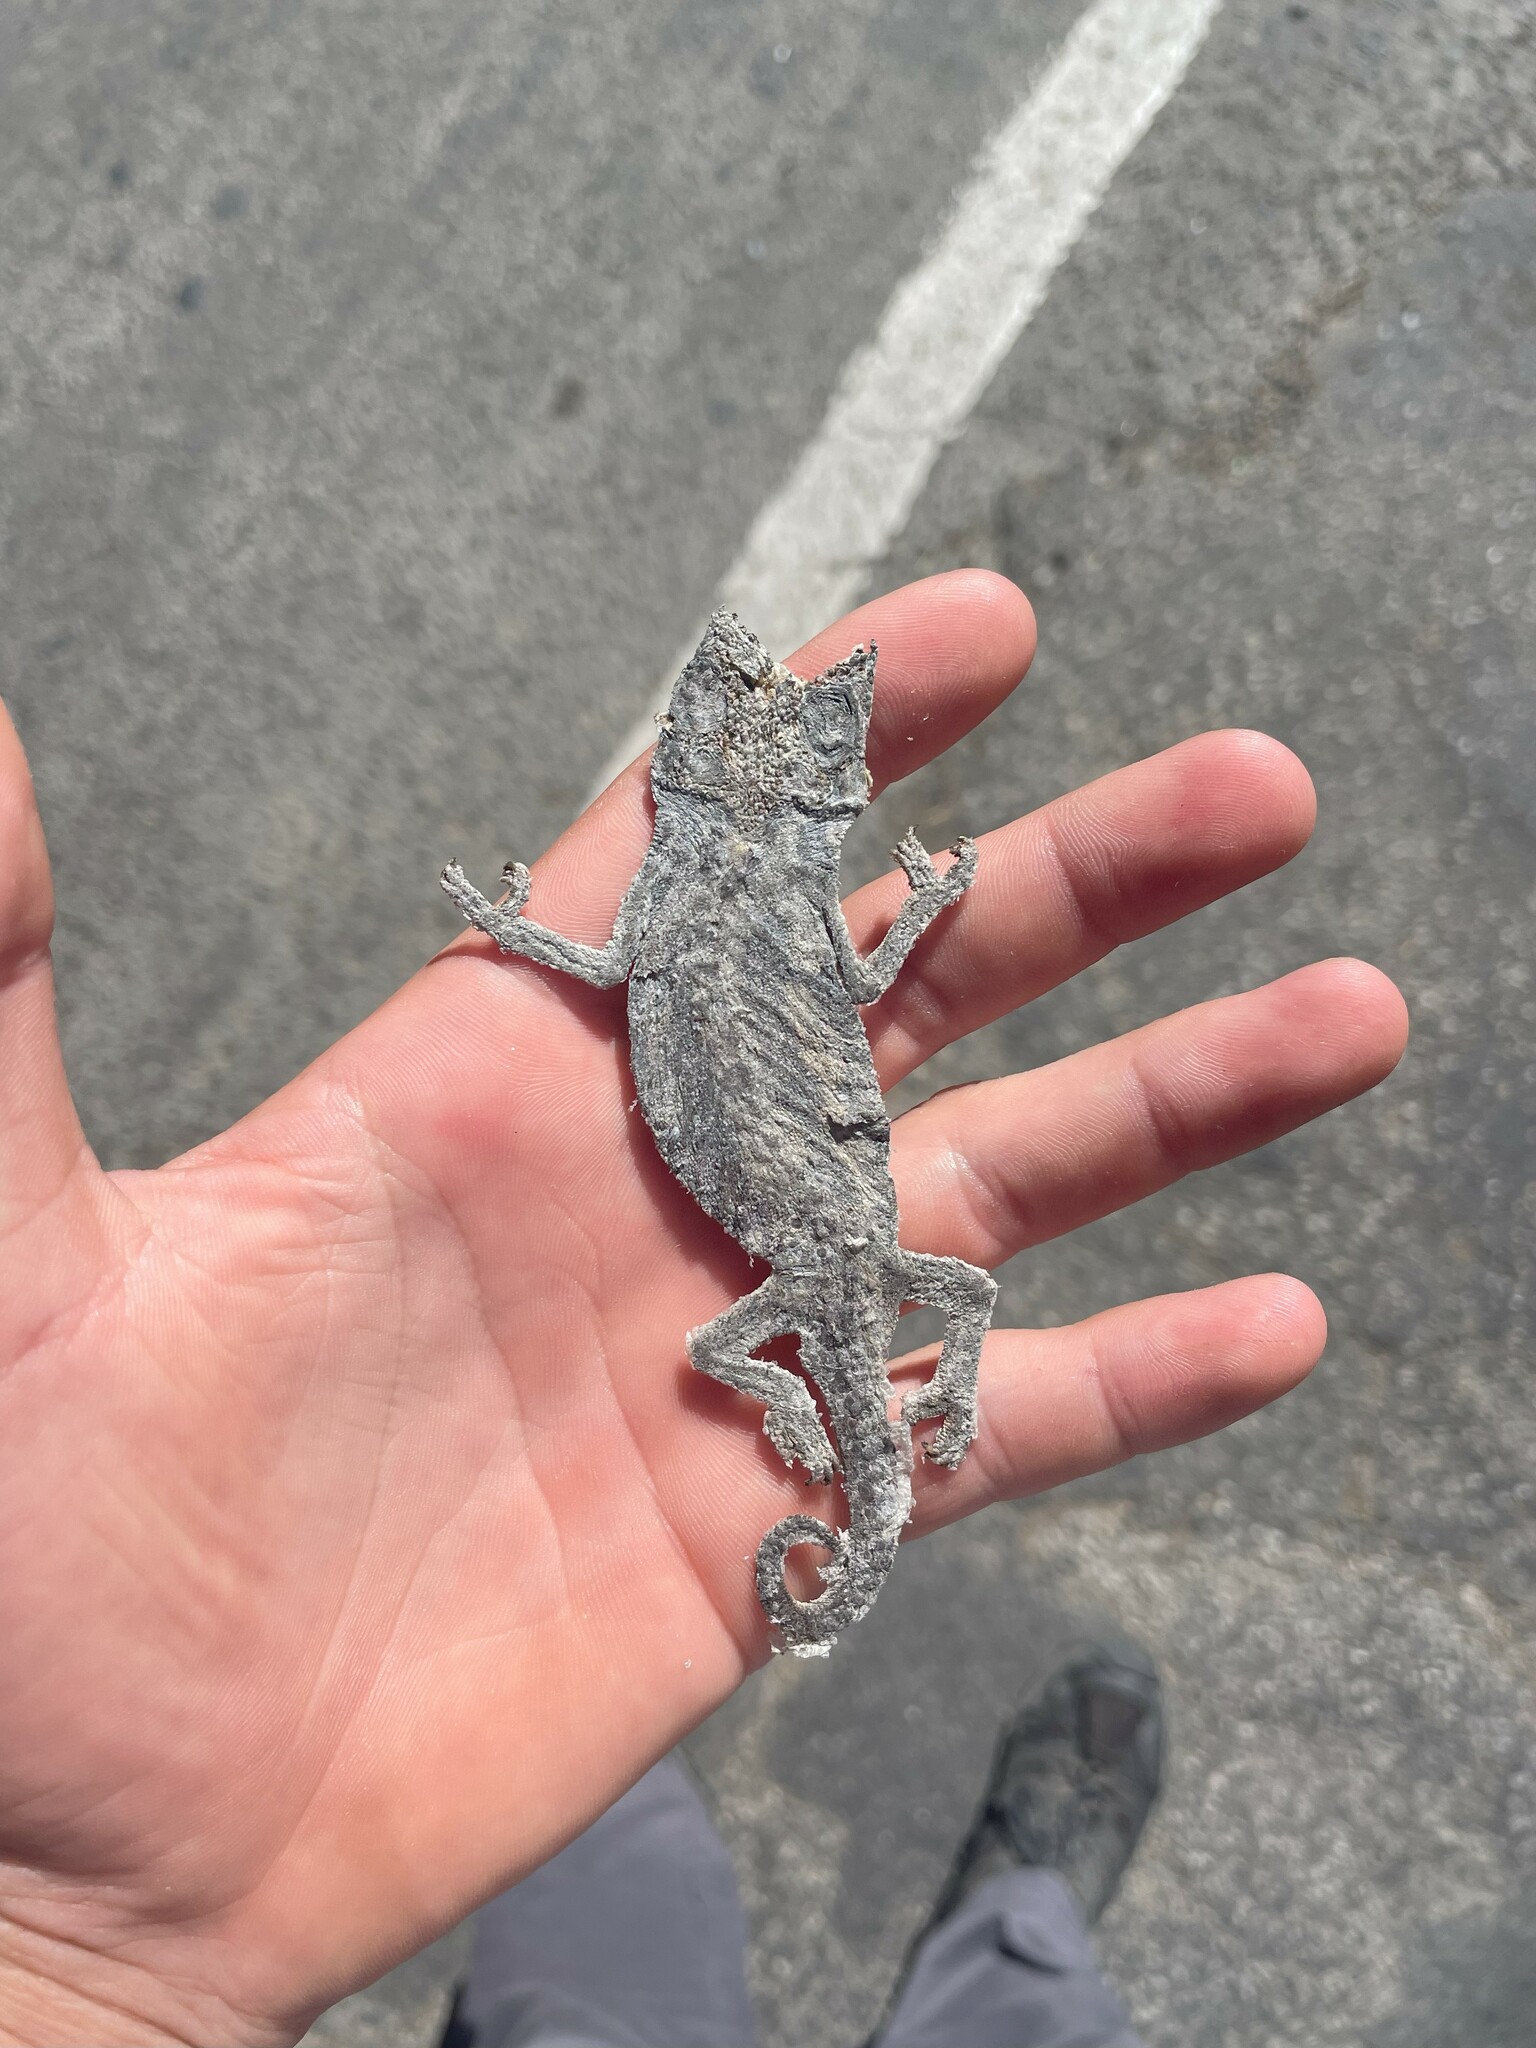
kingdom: Animalia
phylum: Chordata
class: Squamata
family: Chamaeleonidae
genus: Bradypodion
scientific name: Bradypodion ventrale
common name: Eastern cape dwarf chameleon
